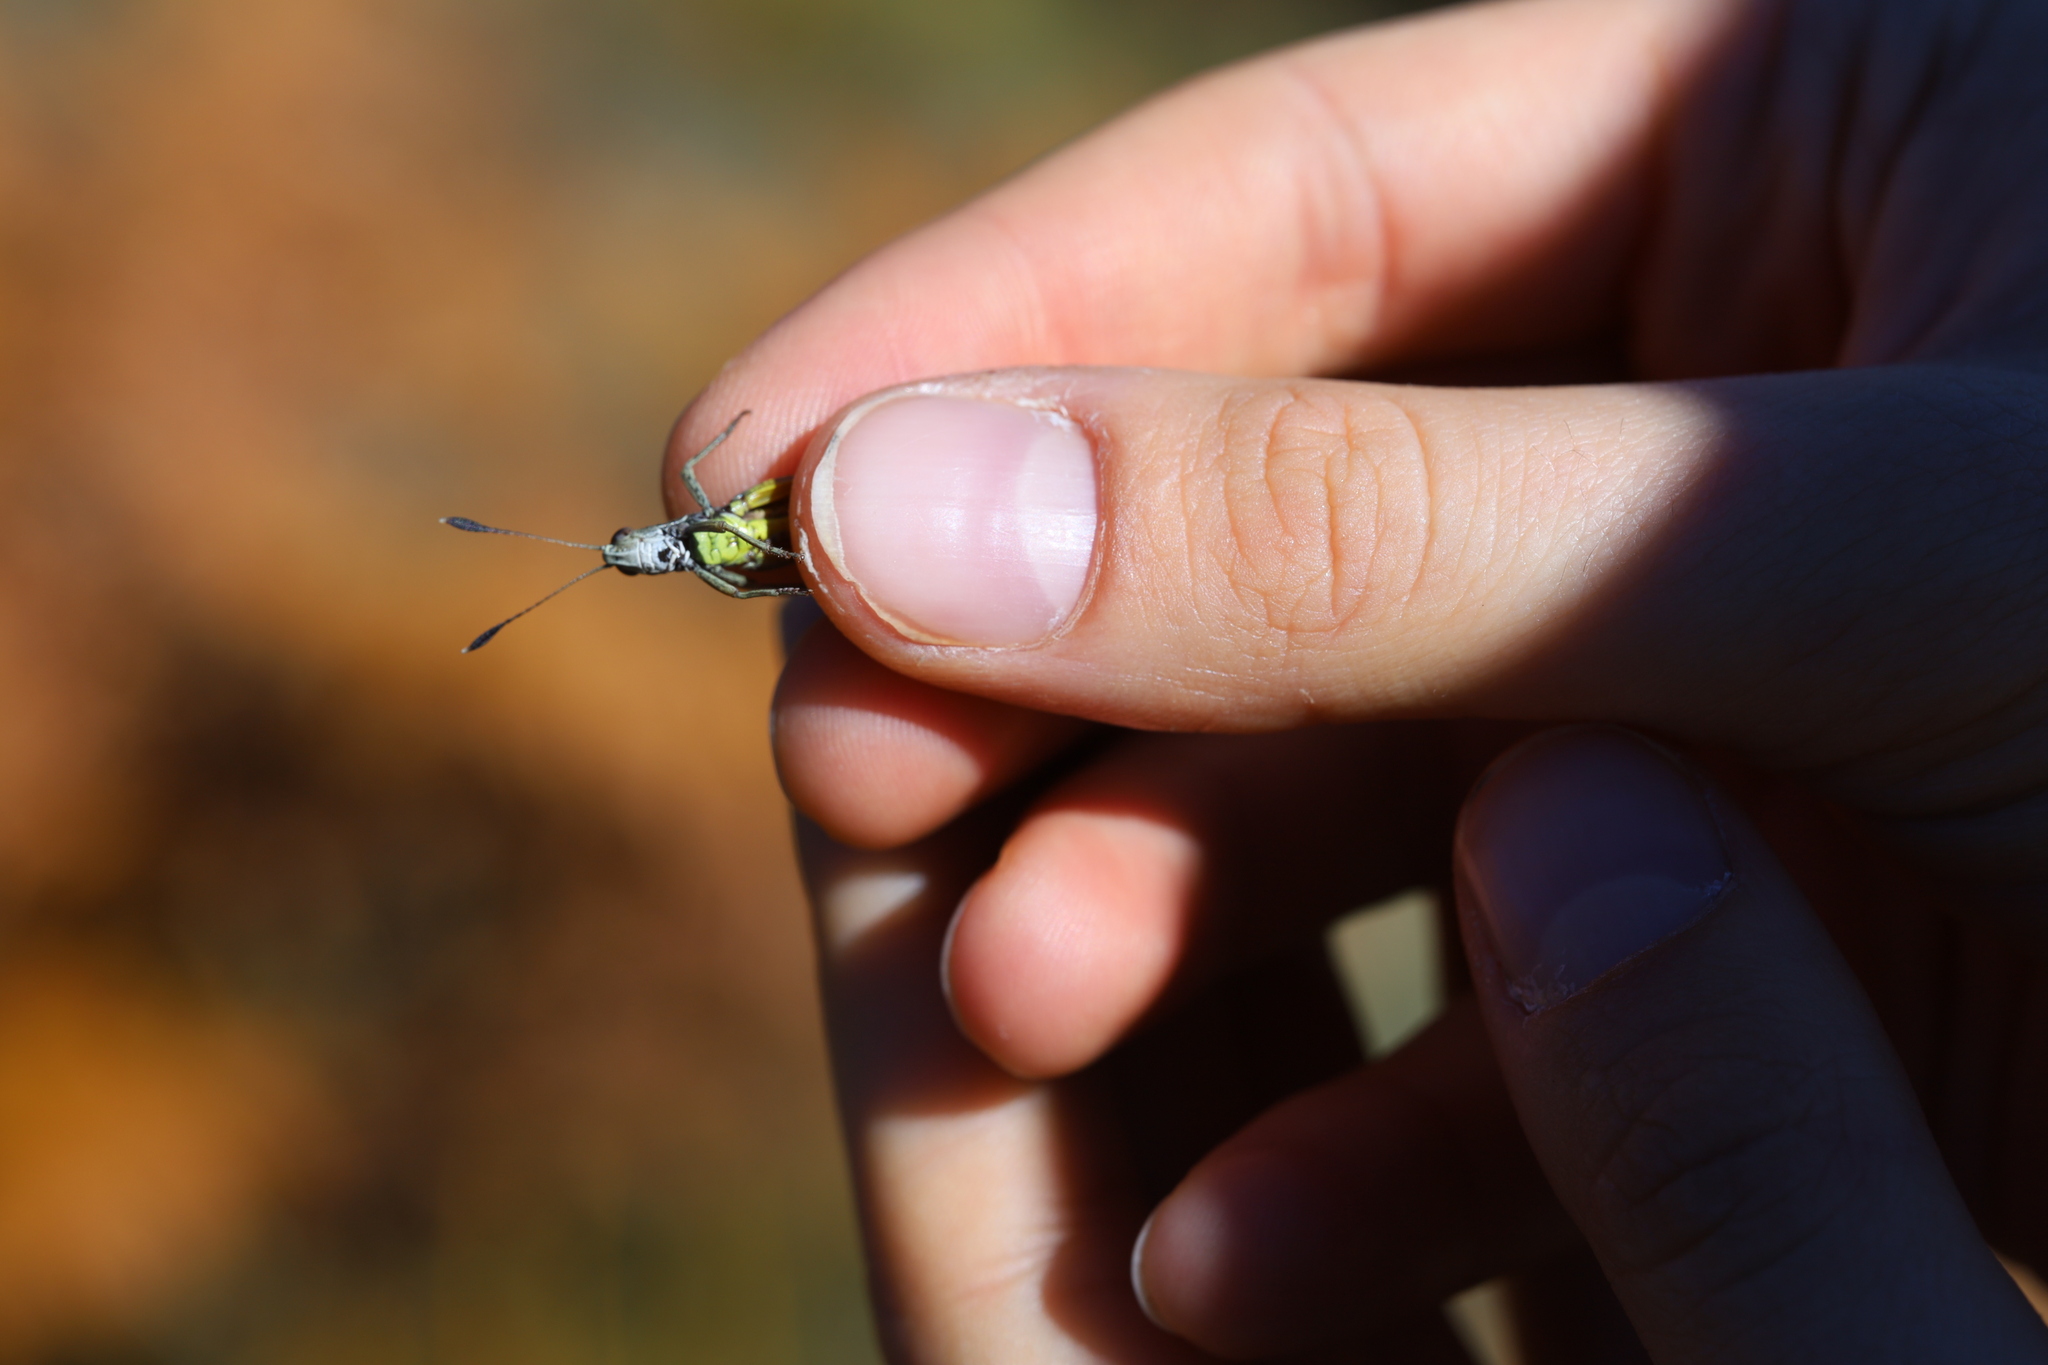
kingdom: Animalia
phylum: Arthropoda
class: Insecta
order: Orthoptera
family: Acrididae
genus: Gomphocerippus
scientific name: Gomphocerippus rufus
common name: Rufous grasshopper
